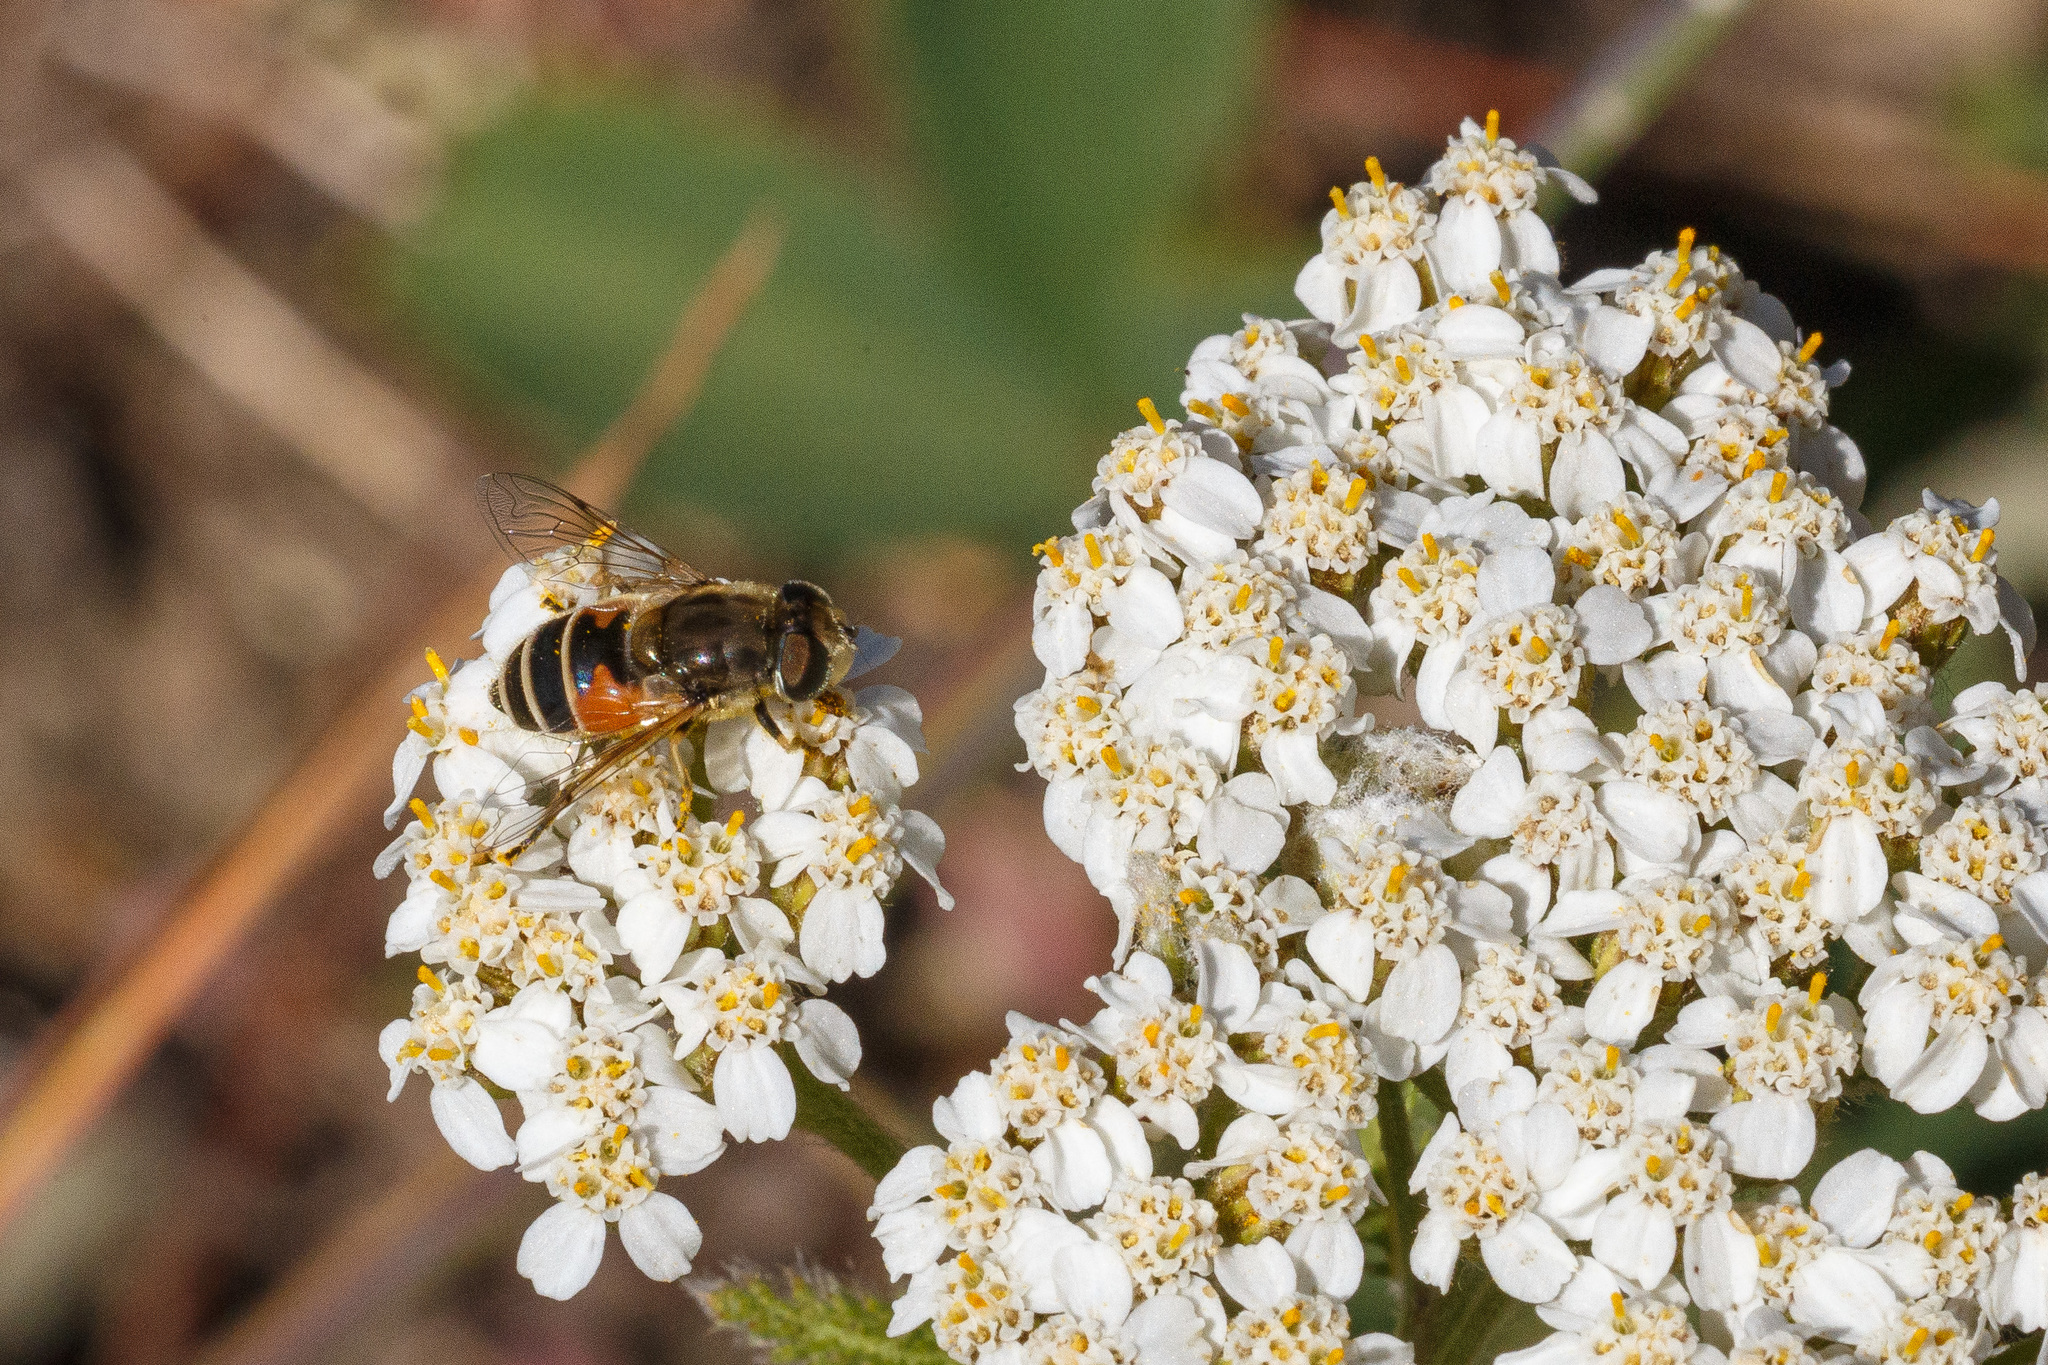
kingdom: Animalia
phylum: Arthropoda
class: Insecta
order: Diptera
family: Syrphidae
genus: Eristalis
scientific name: Eristalis arbustorum
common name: Hover fly
